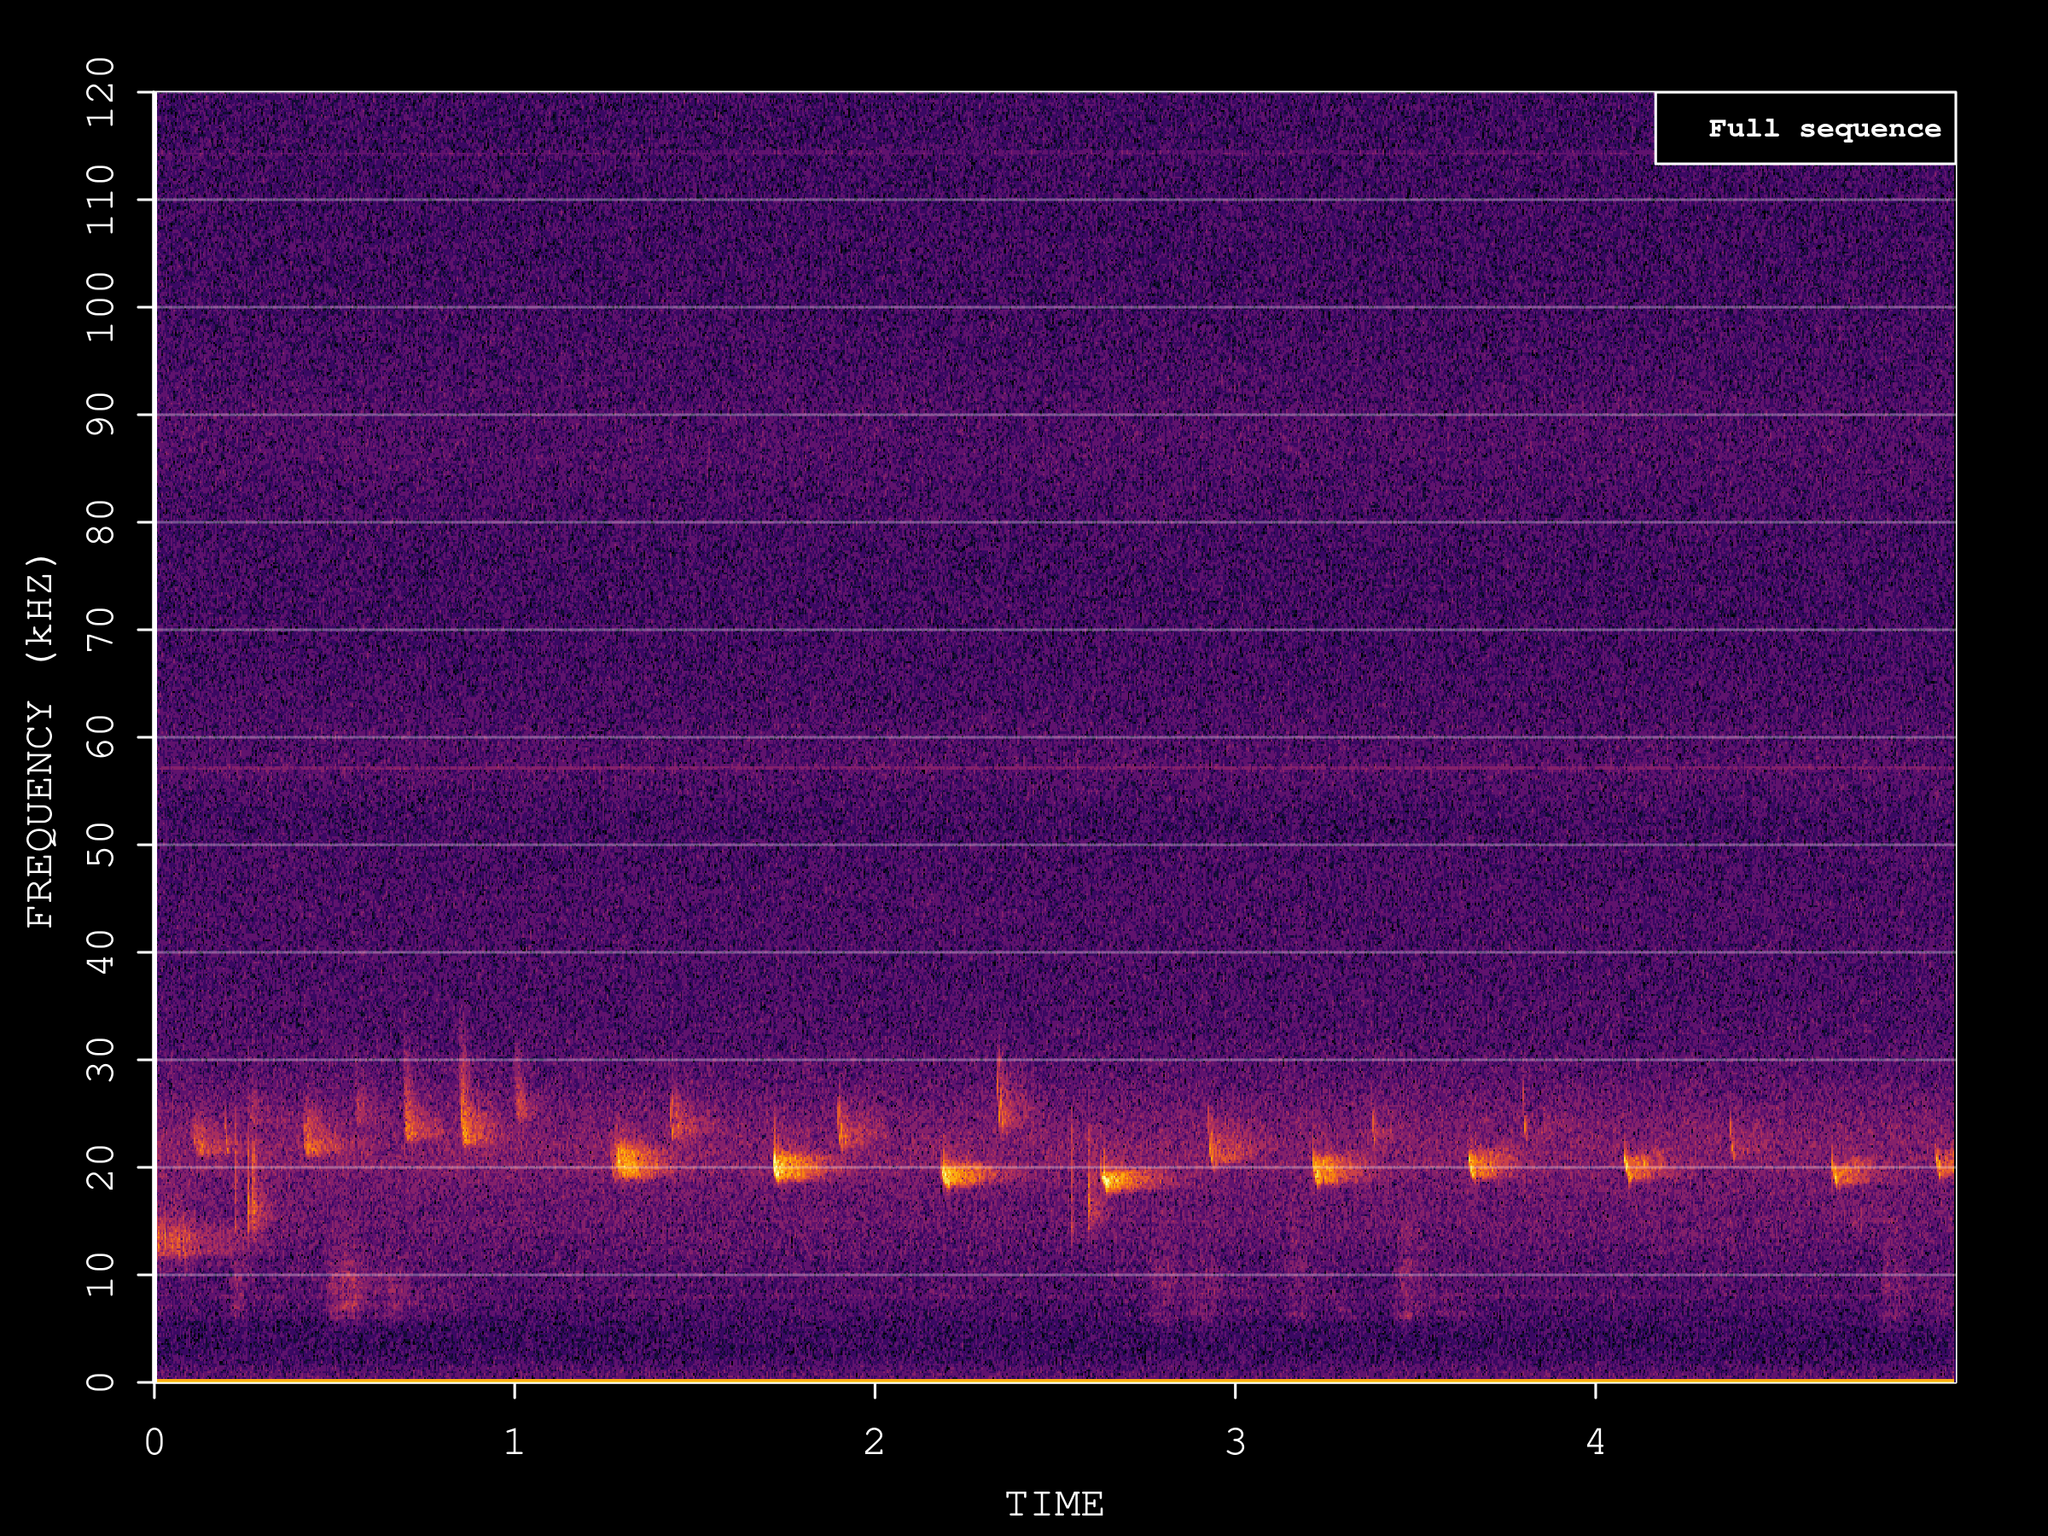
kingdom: Animalia
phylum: Chordata
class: Mammalia
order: Chiroptera
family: Vespertilionidae
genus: Nyctalus
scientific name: Nyctalus noctula
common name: Noctule
